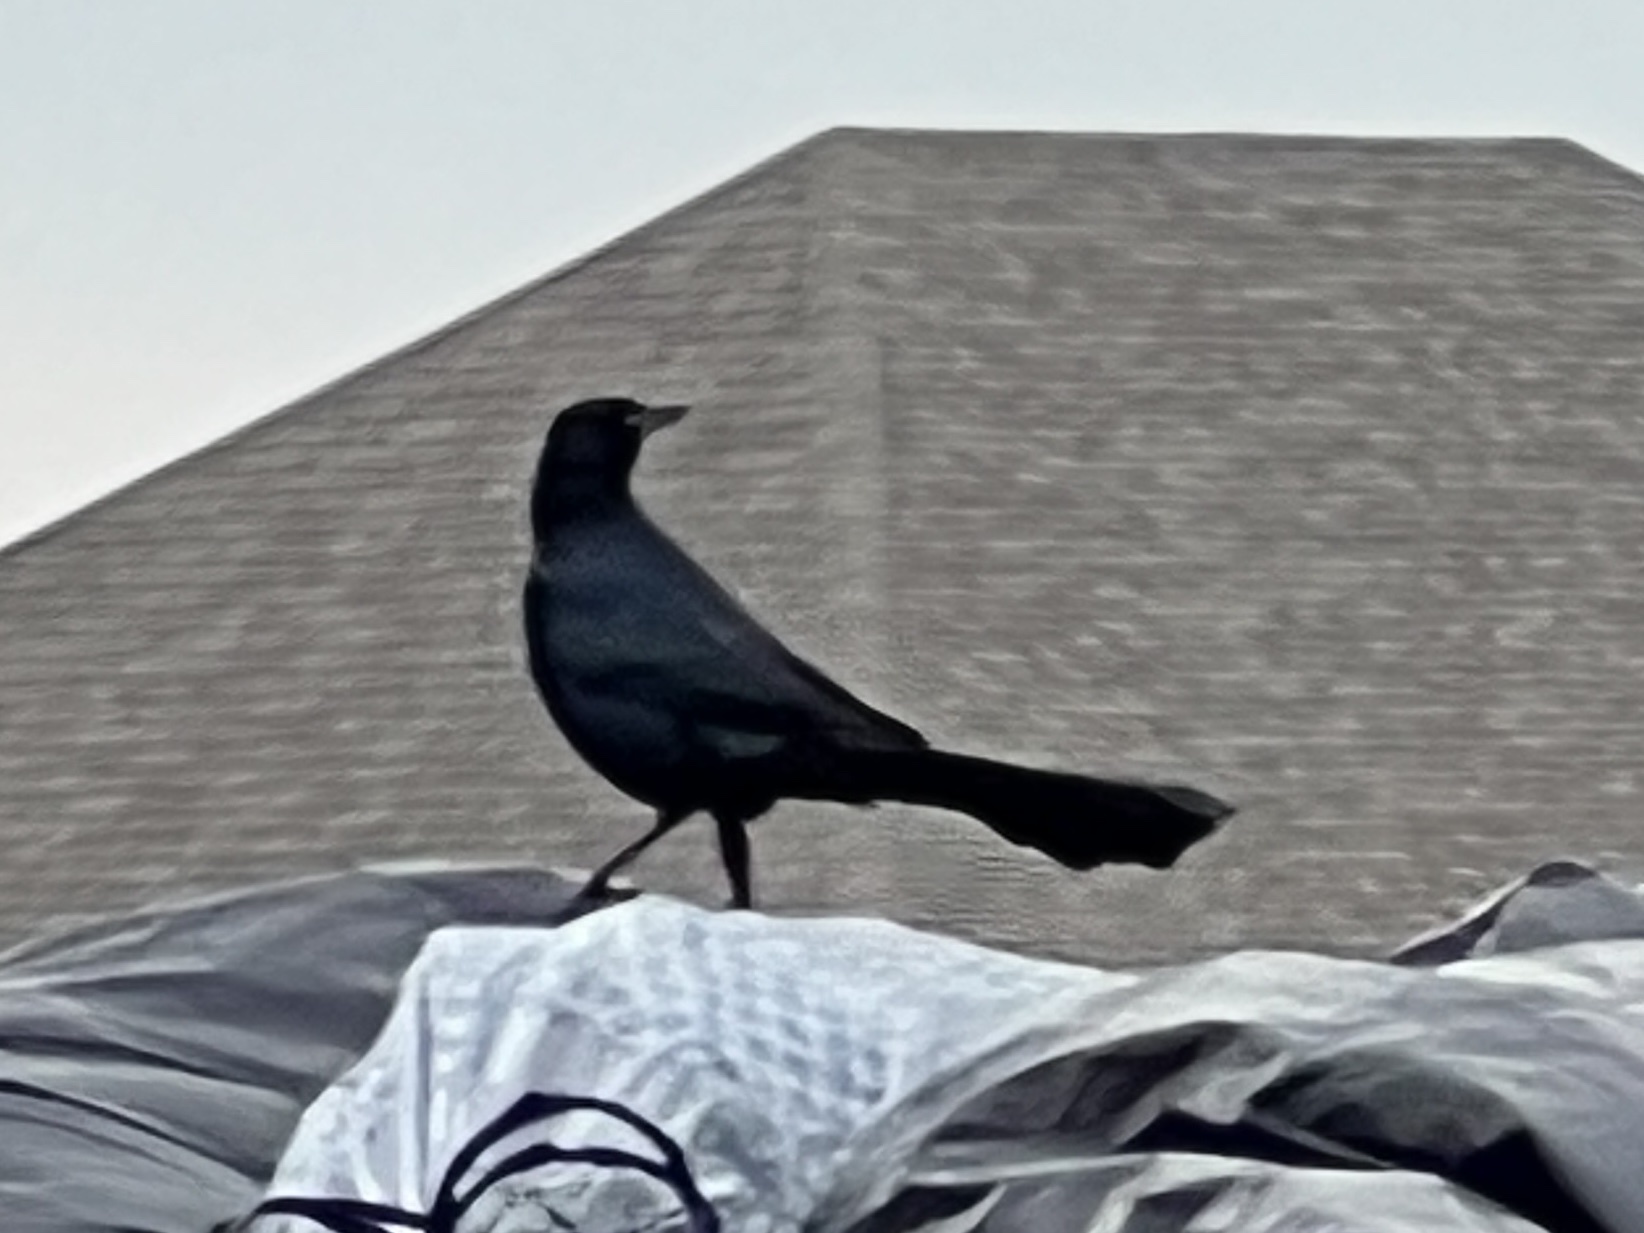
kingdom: Animalia
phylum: Chordata
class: Aves
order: Passeriformes
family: Icteridae
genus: Quiscalus
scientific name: Quiscalus mexicanus
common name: Great-tailed grackle
